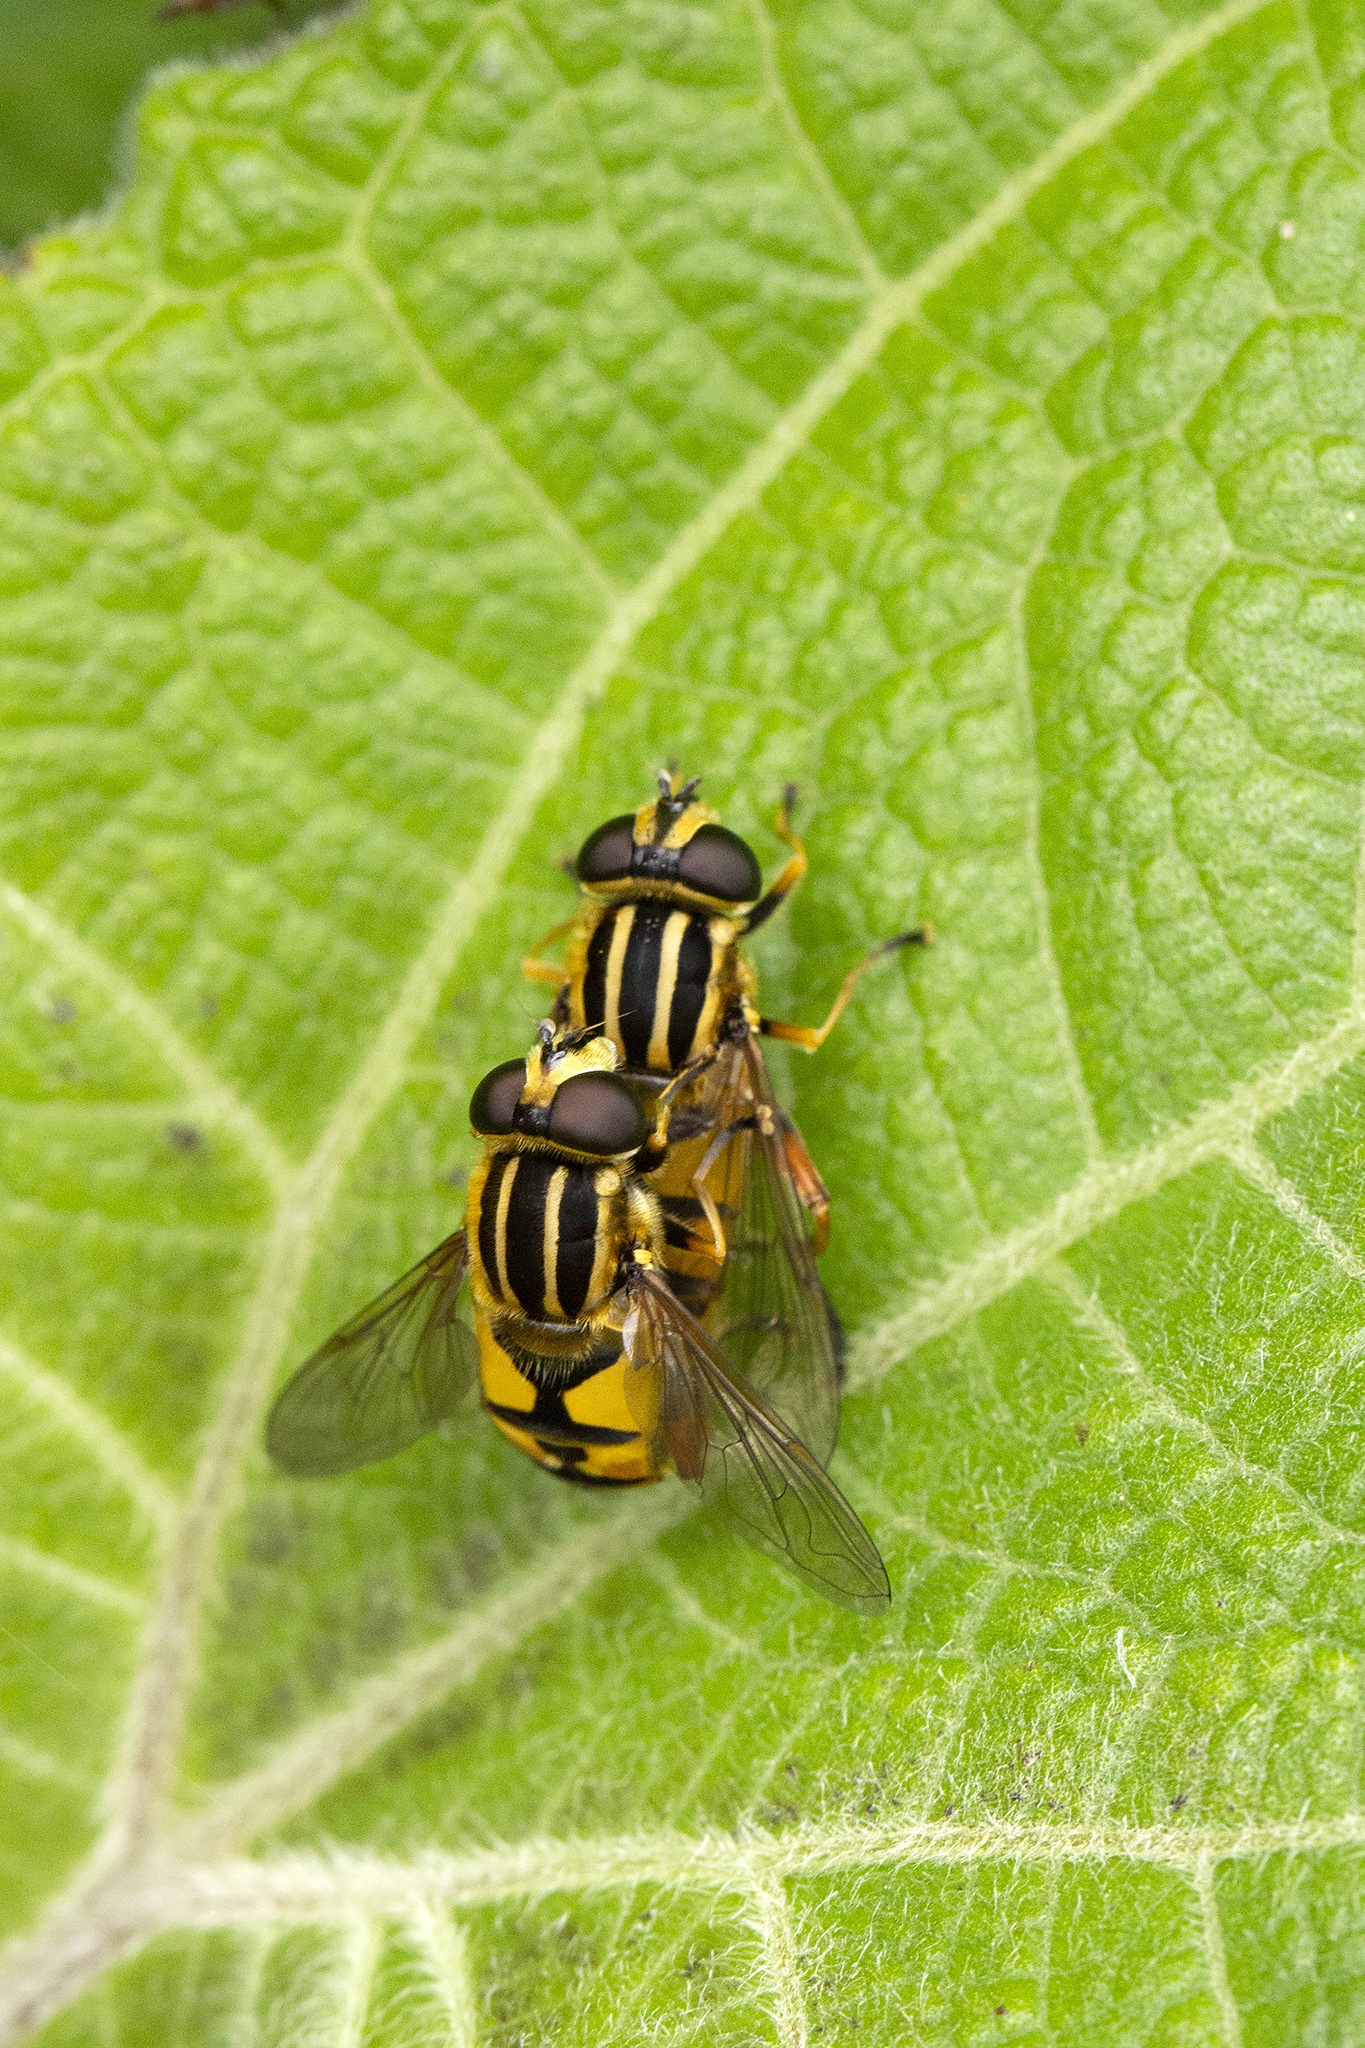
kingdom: Animalia
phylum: Arthropoda
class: Insecta
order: Diptera
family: Syrphidae
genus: Helophilus
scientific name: Helophilus pendulus
